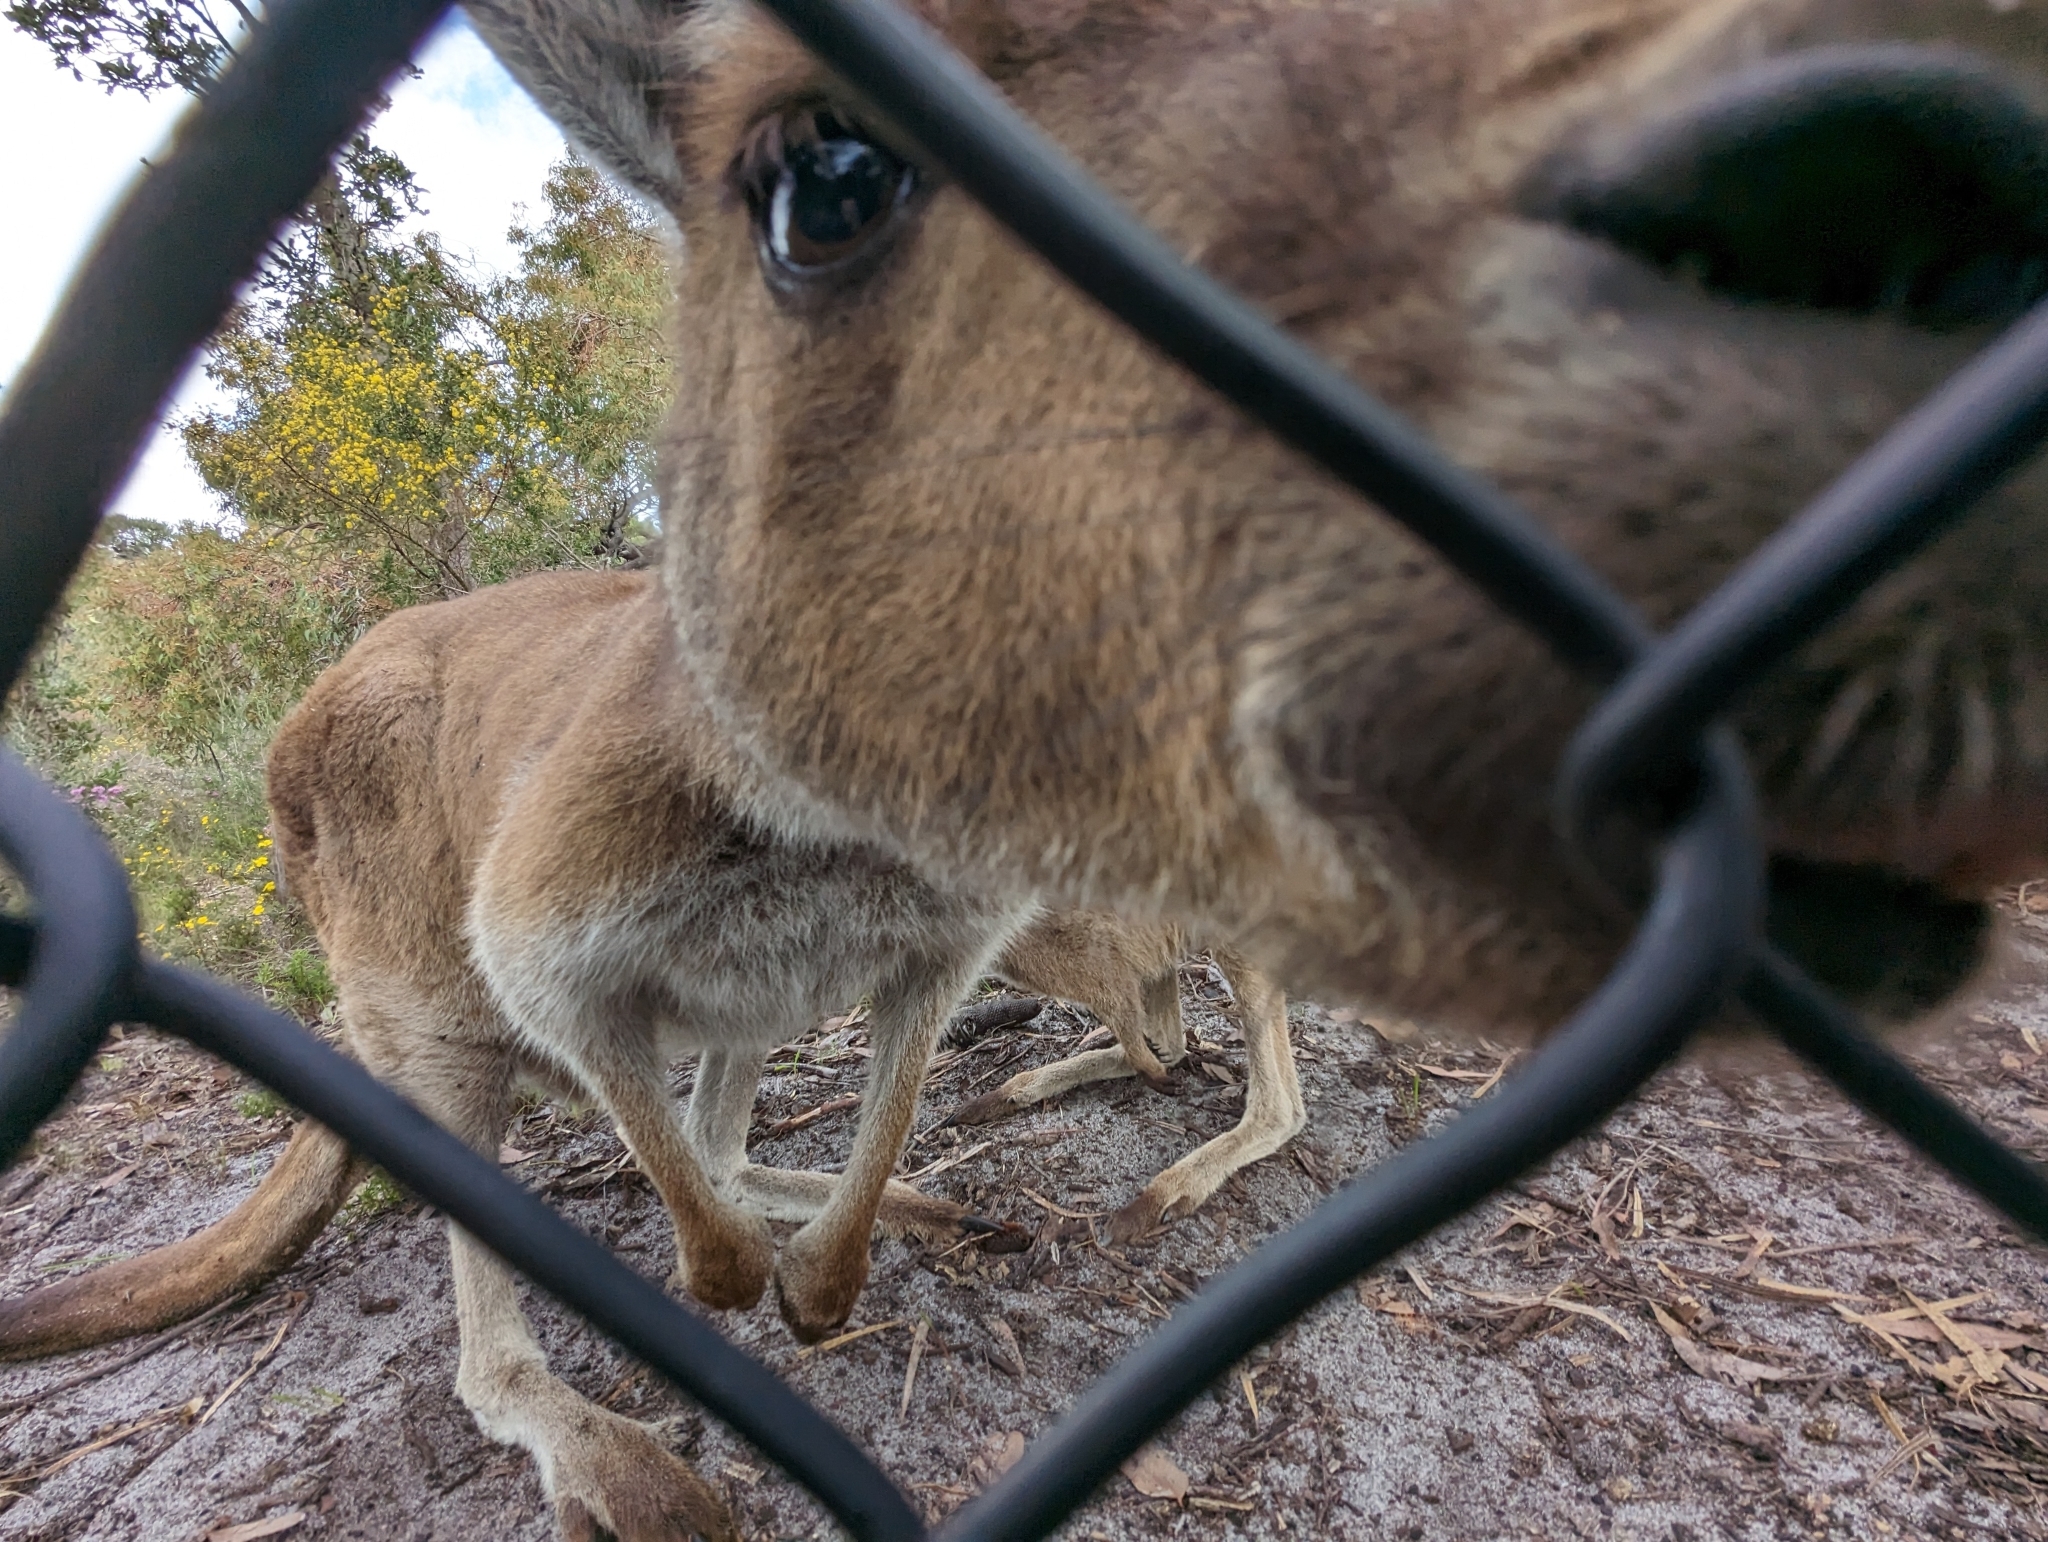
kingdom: Animalia
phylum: Chordata
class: Mammalia
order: Diprotodontia
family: Macropodidae
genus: Macropus
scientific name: Macropus fuliginosus
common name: Western grey kangaroo
